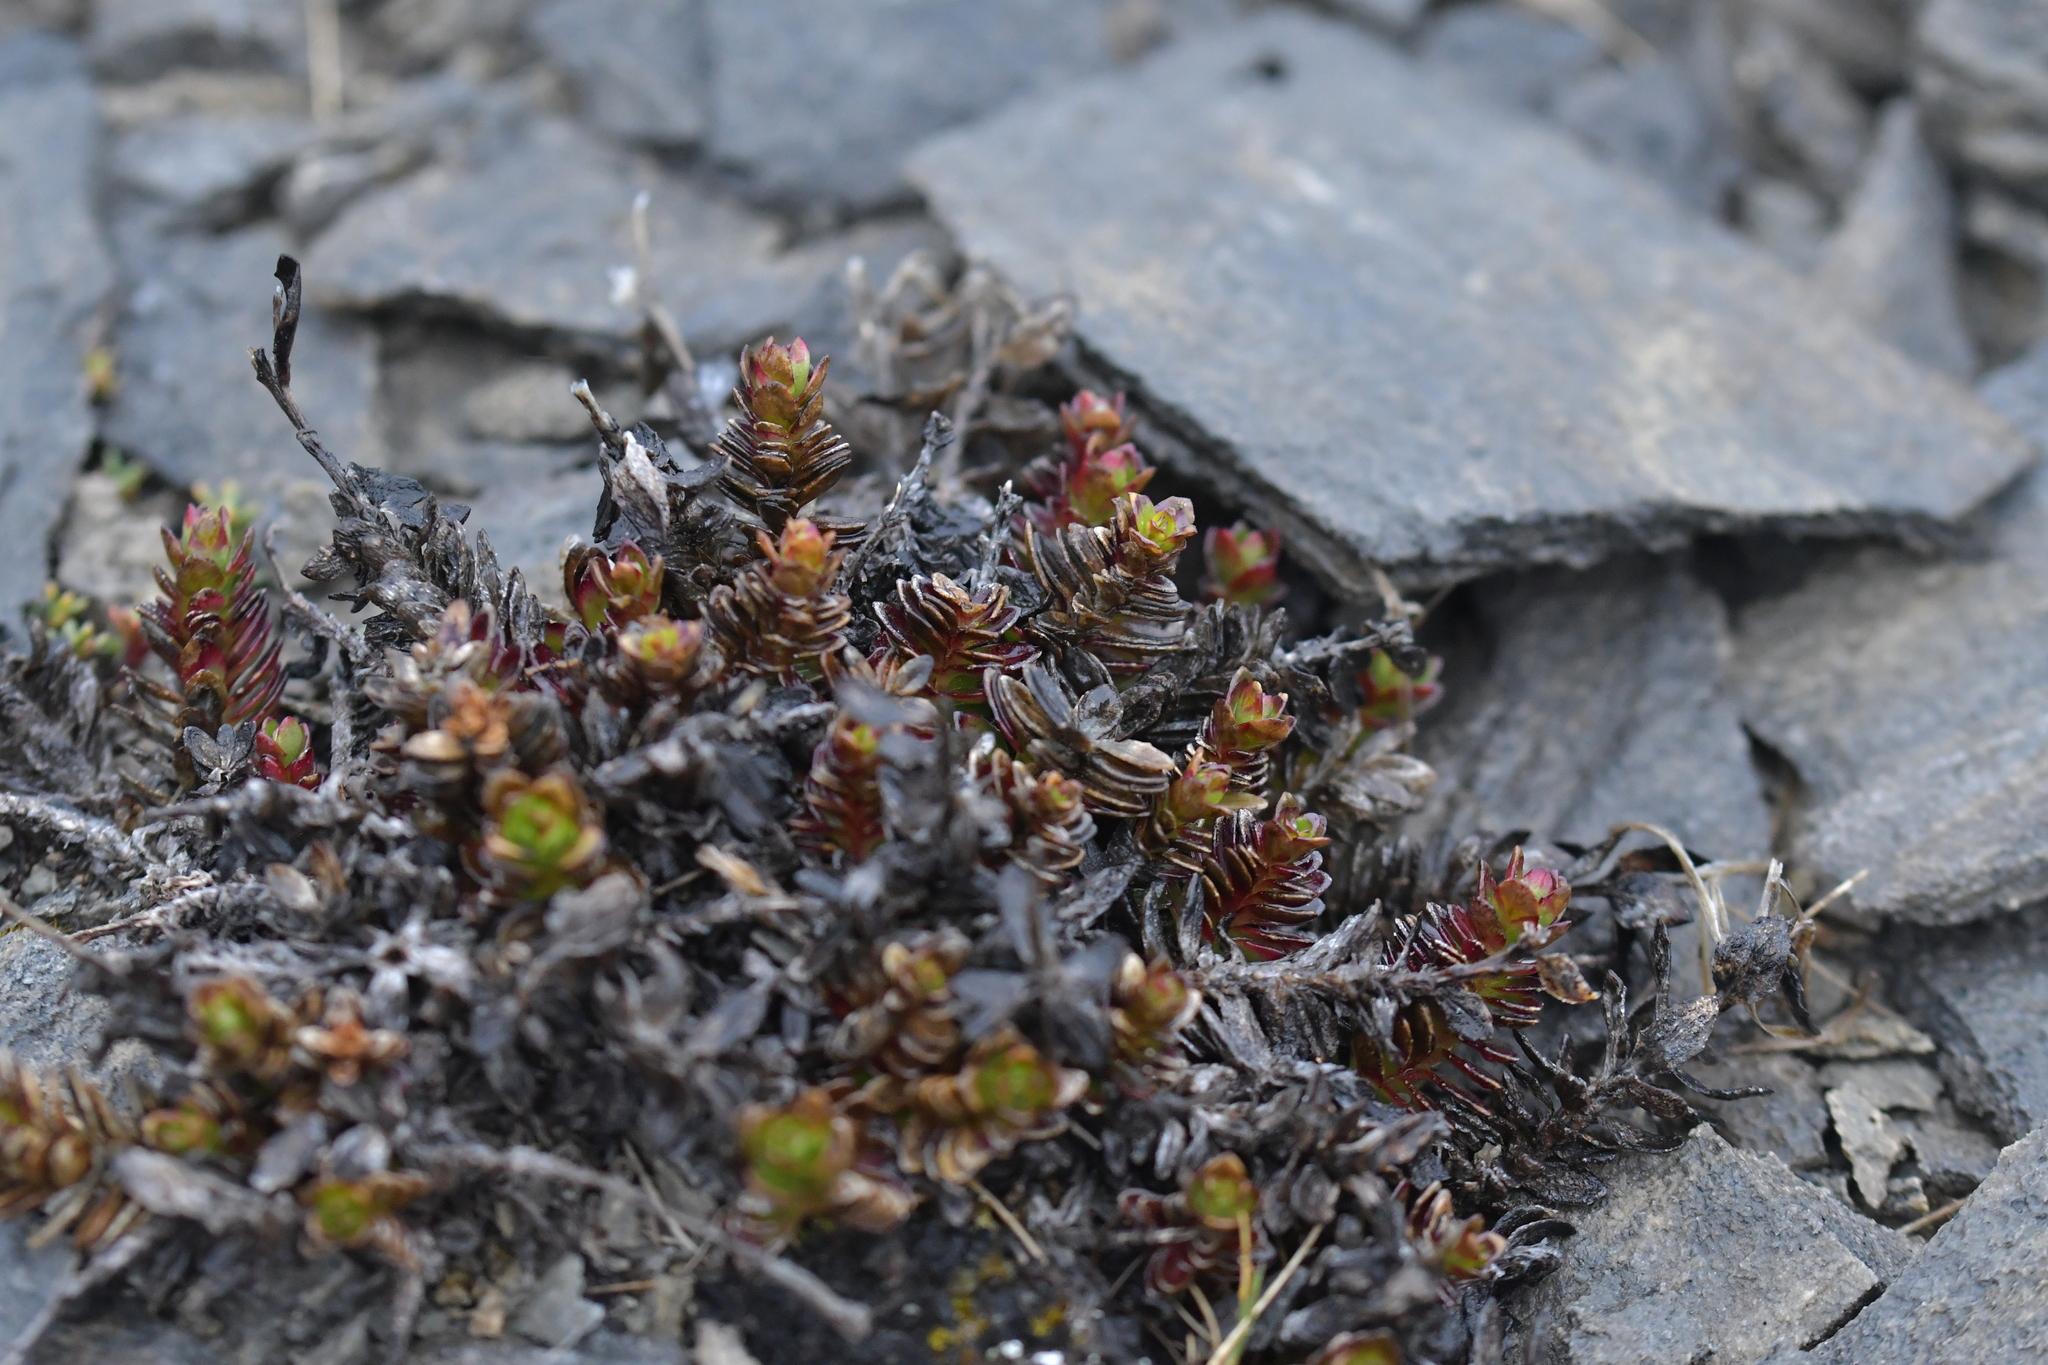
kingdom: Plantae
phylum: Tracheophyta
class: Magnoliopsida
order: Myrtales
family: Onagraceae
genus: Epilobium
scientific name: Epilobium glabellum
